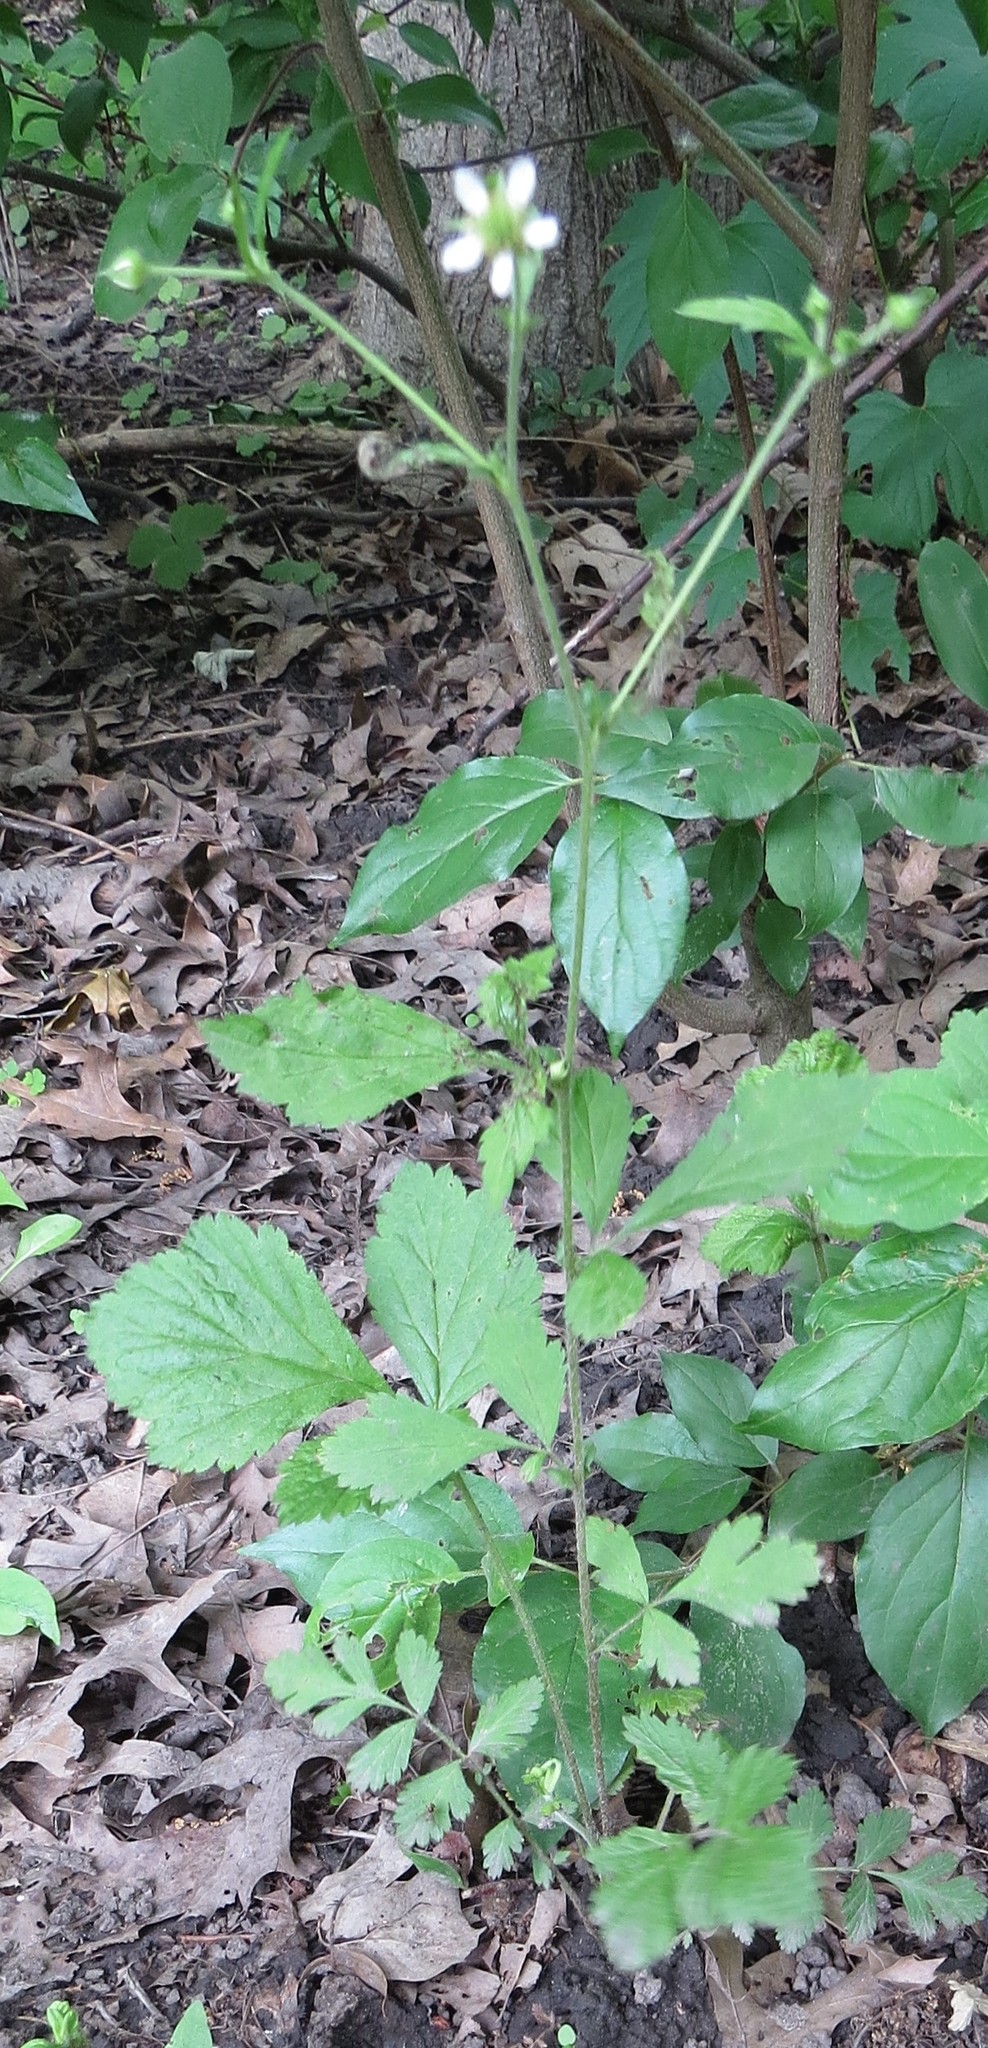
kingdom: Plantae
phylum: Tracheophyta
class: Magnoliopsida
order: Rosales
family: Rosaceae
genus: Geum
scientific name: Geum canadense
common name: White avens
